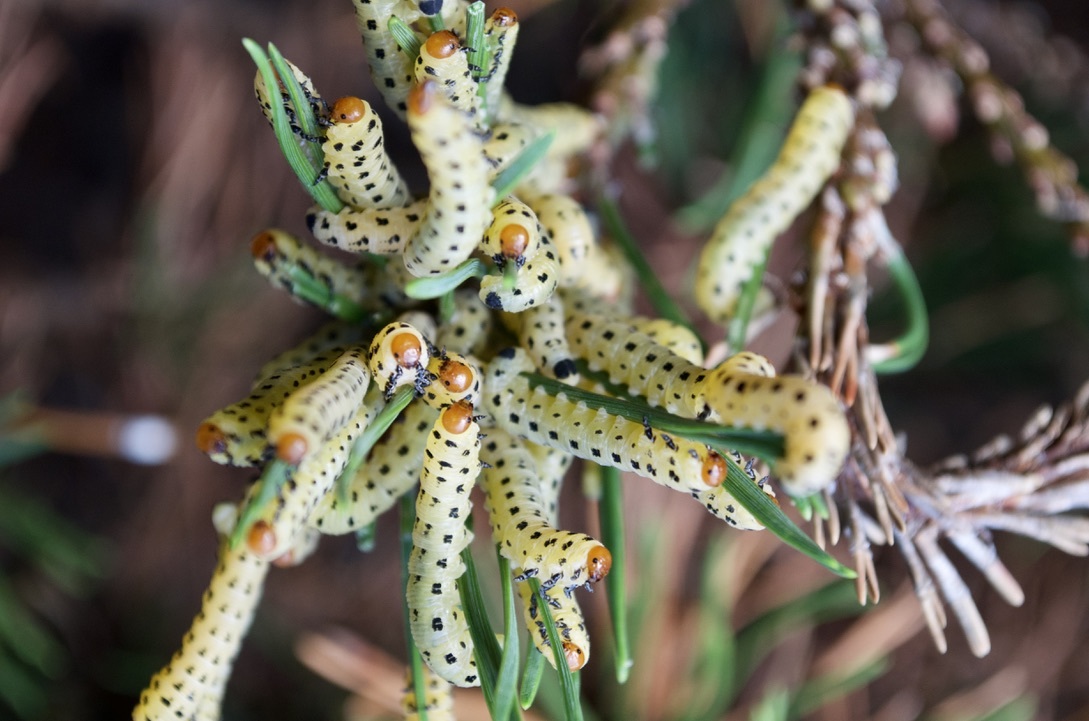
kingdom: Animalia
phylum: Arthropoda
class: Insecta
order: Hymenoptera
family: Diprionidae
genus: Neodiprion
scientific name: Neodiprion lecontei
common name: Redheaded pine sawfly
